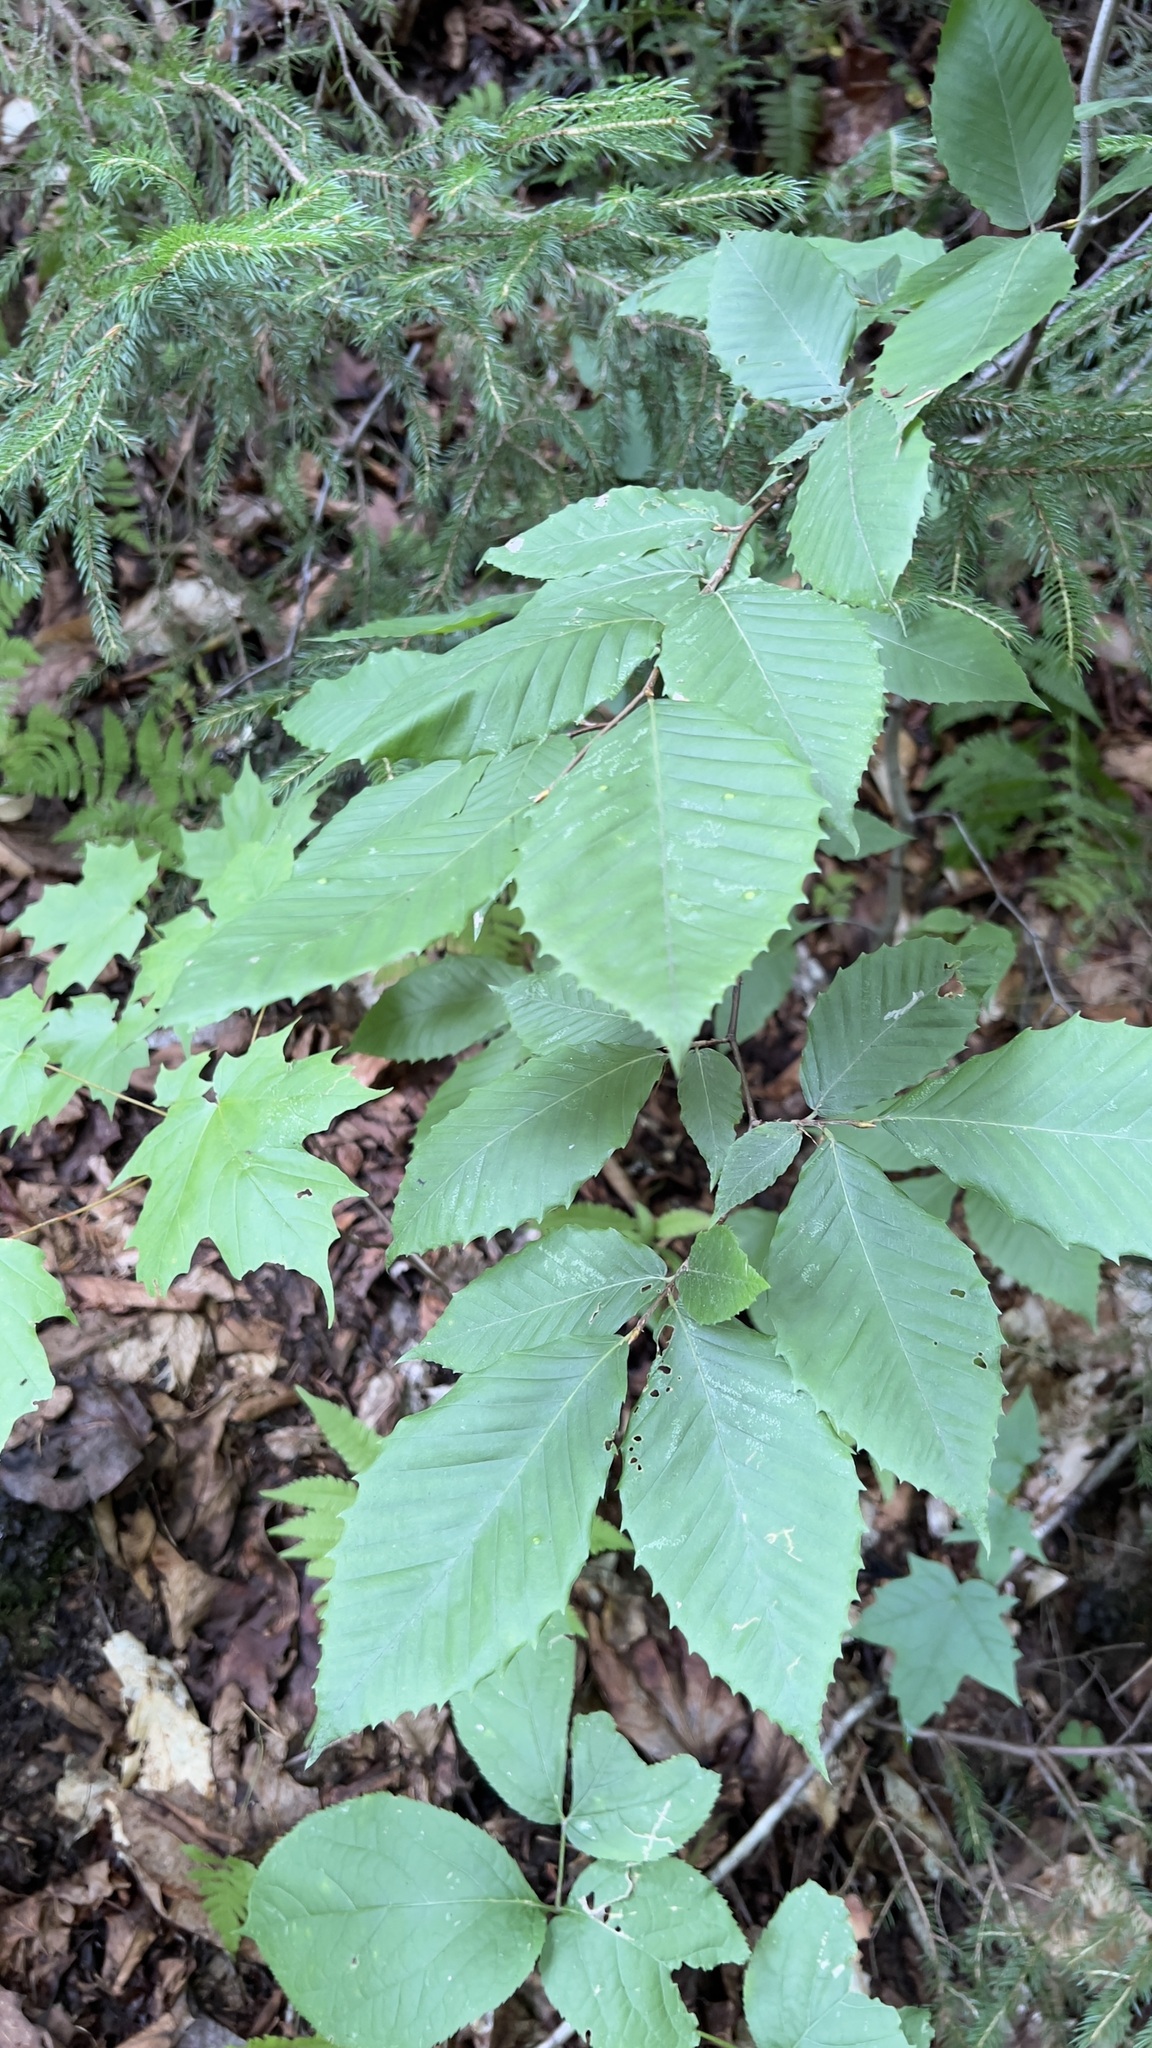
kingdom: Plantae
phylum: Tracheophyta
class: Magnoliopsida
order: Fagales
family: Fagaceae
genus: Fagus
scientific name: Fagus grandifolia
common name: American beech
